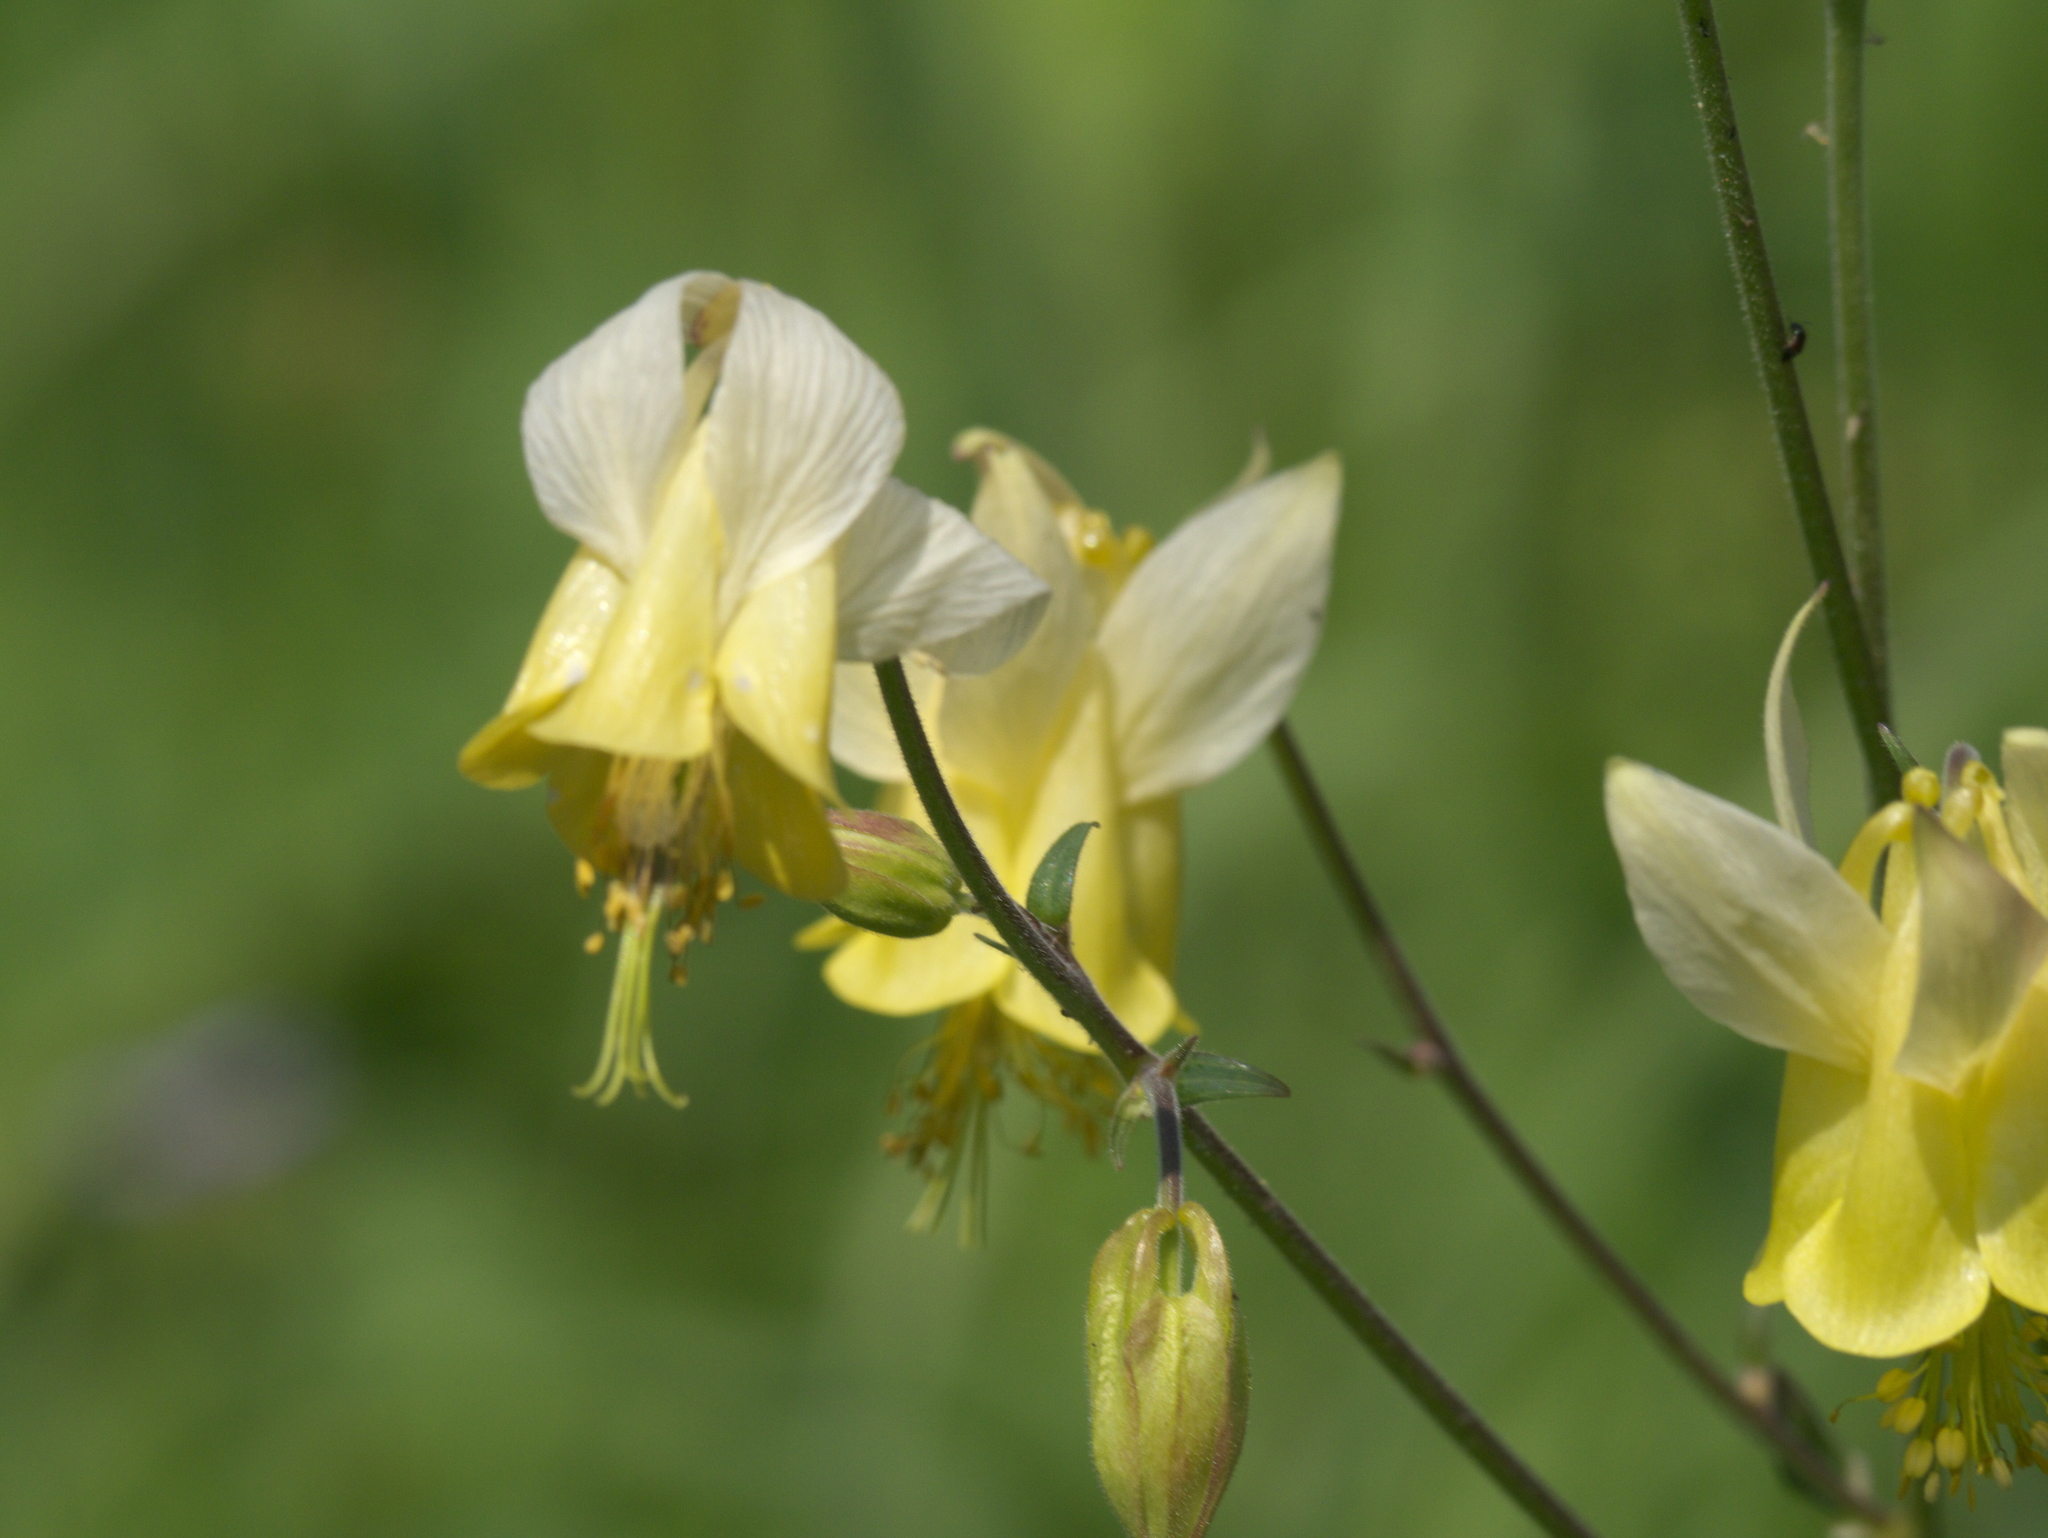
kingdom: Plantae
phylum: Tracheophyta
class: Magnoliopsida
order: Ranunculales
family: Ranunculaceae
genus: Aquilegia
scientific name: Aquilegia flavescens
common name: Yellow columbine
